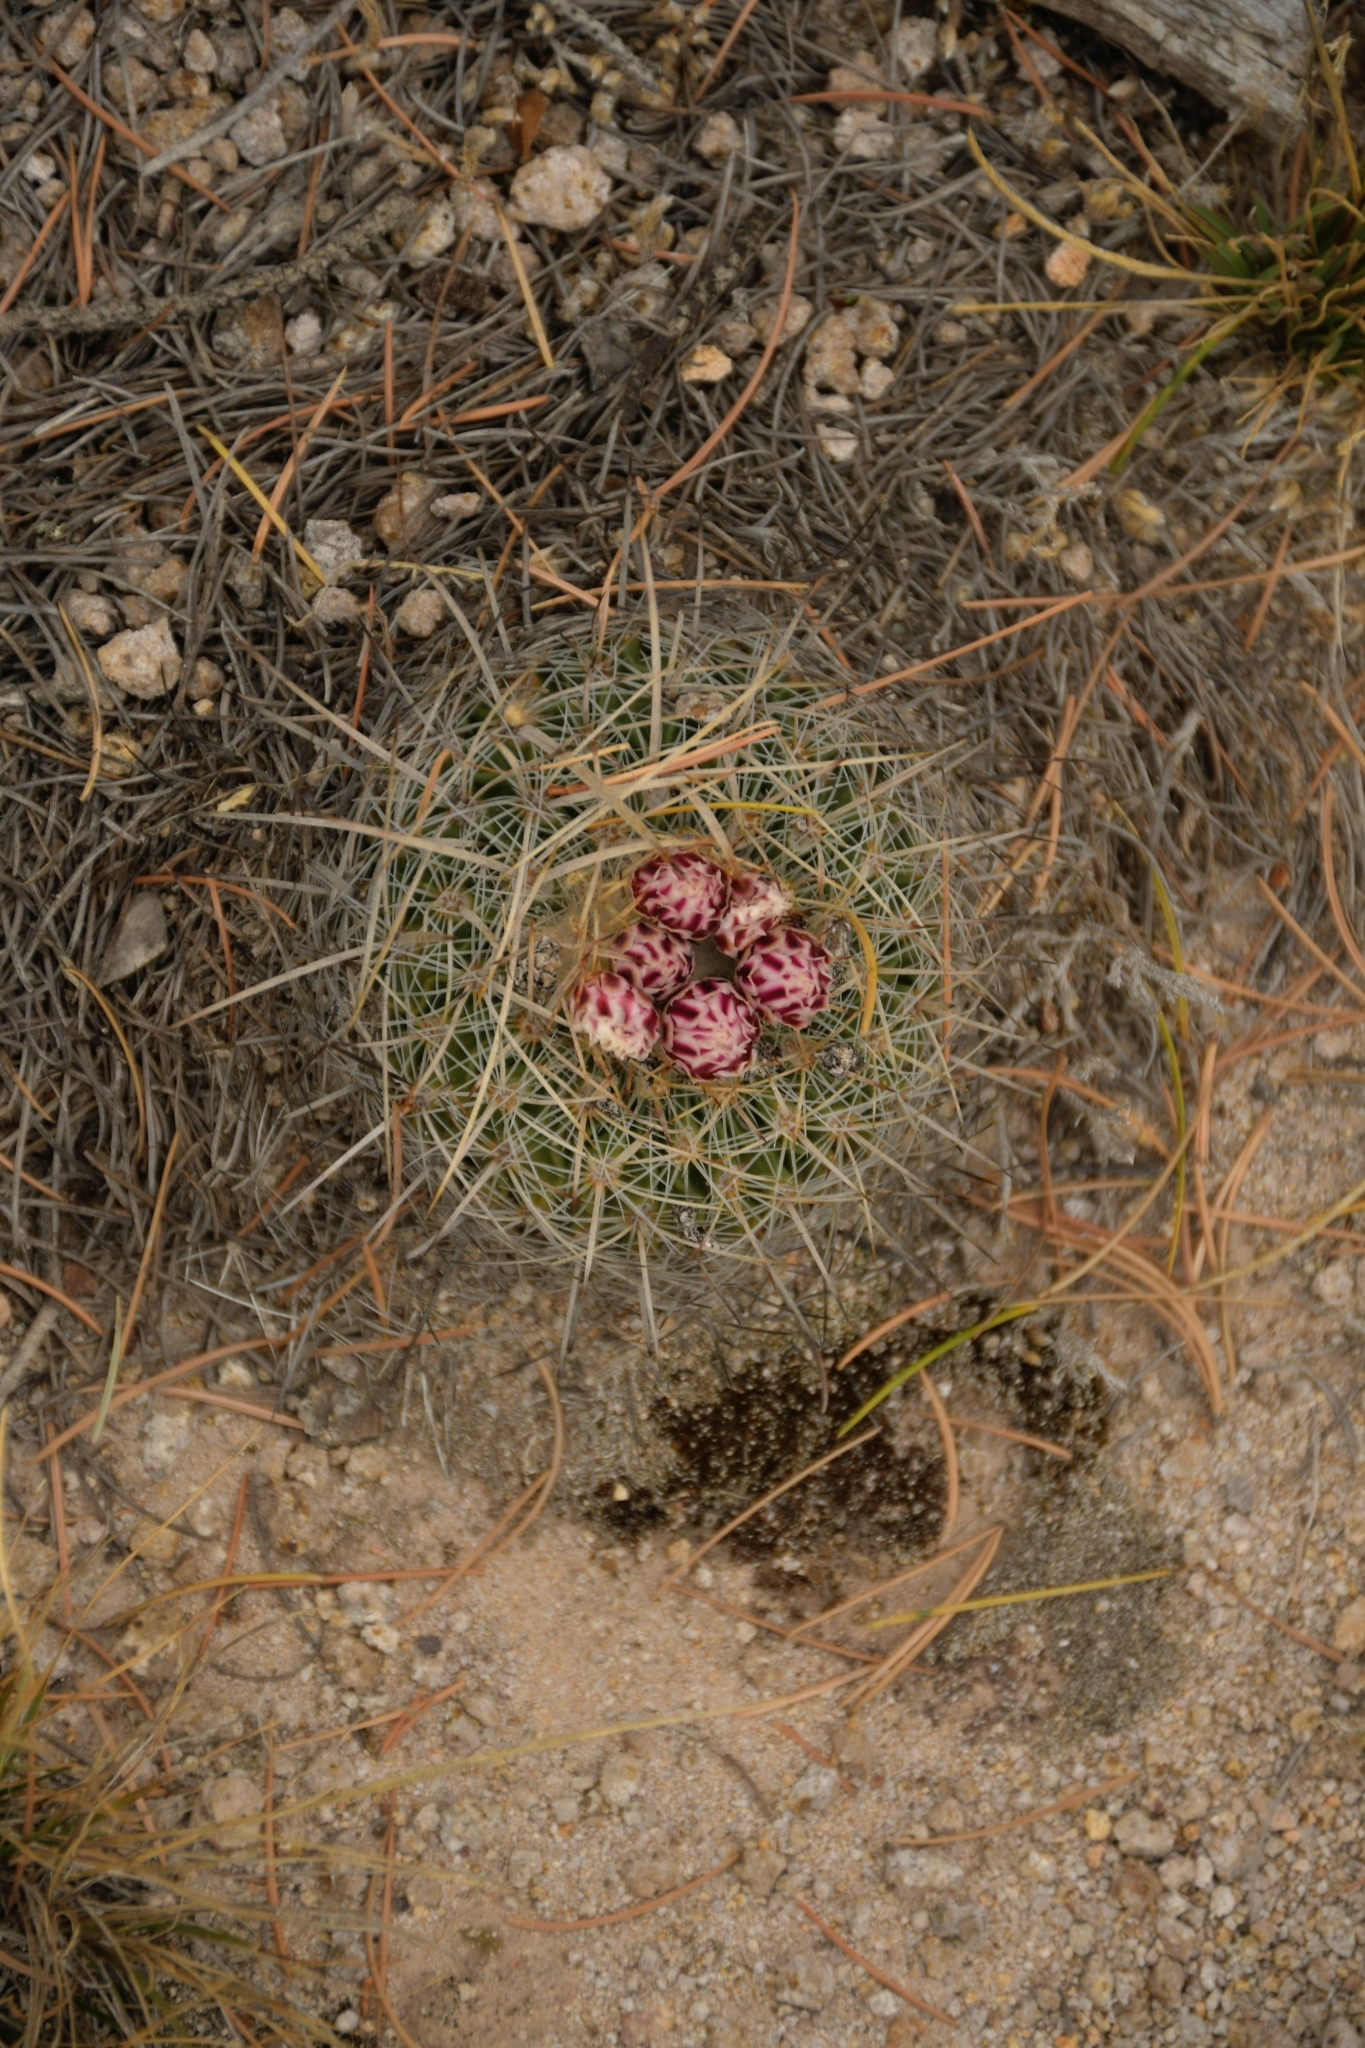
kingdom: Plantae
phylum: Tracheophyta
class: Magnoliopsida
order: Caryophyllales
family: Cactaceae
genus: Stenocactus
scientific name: Stenocactus ochoterenianus
